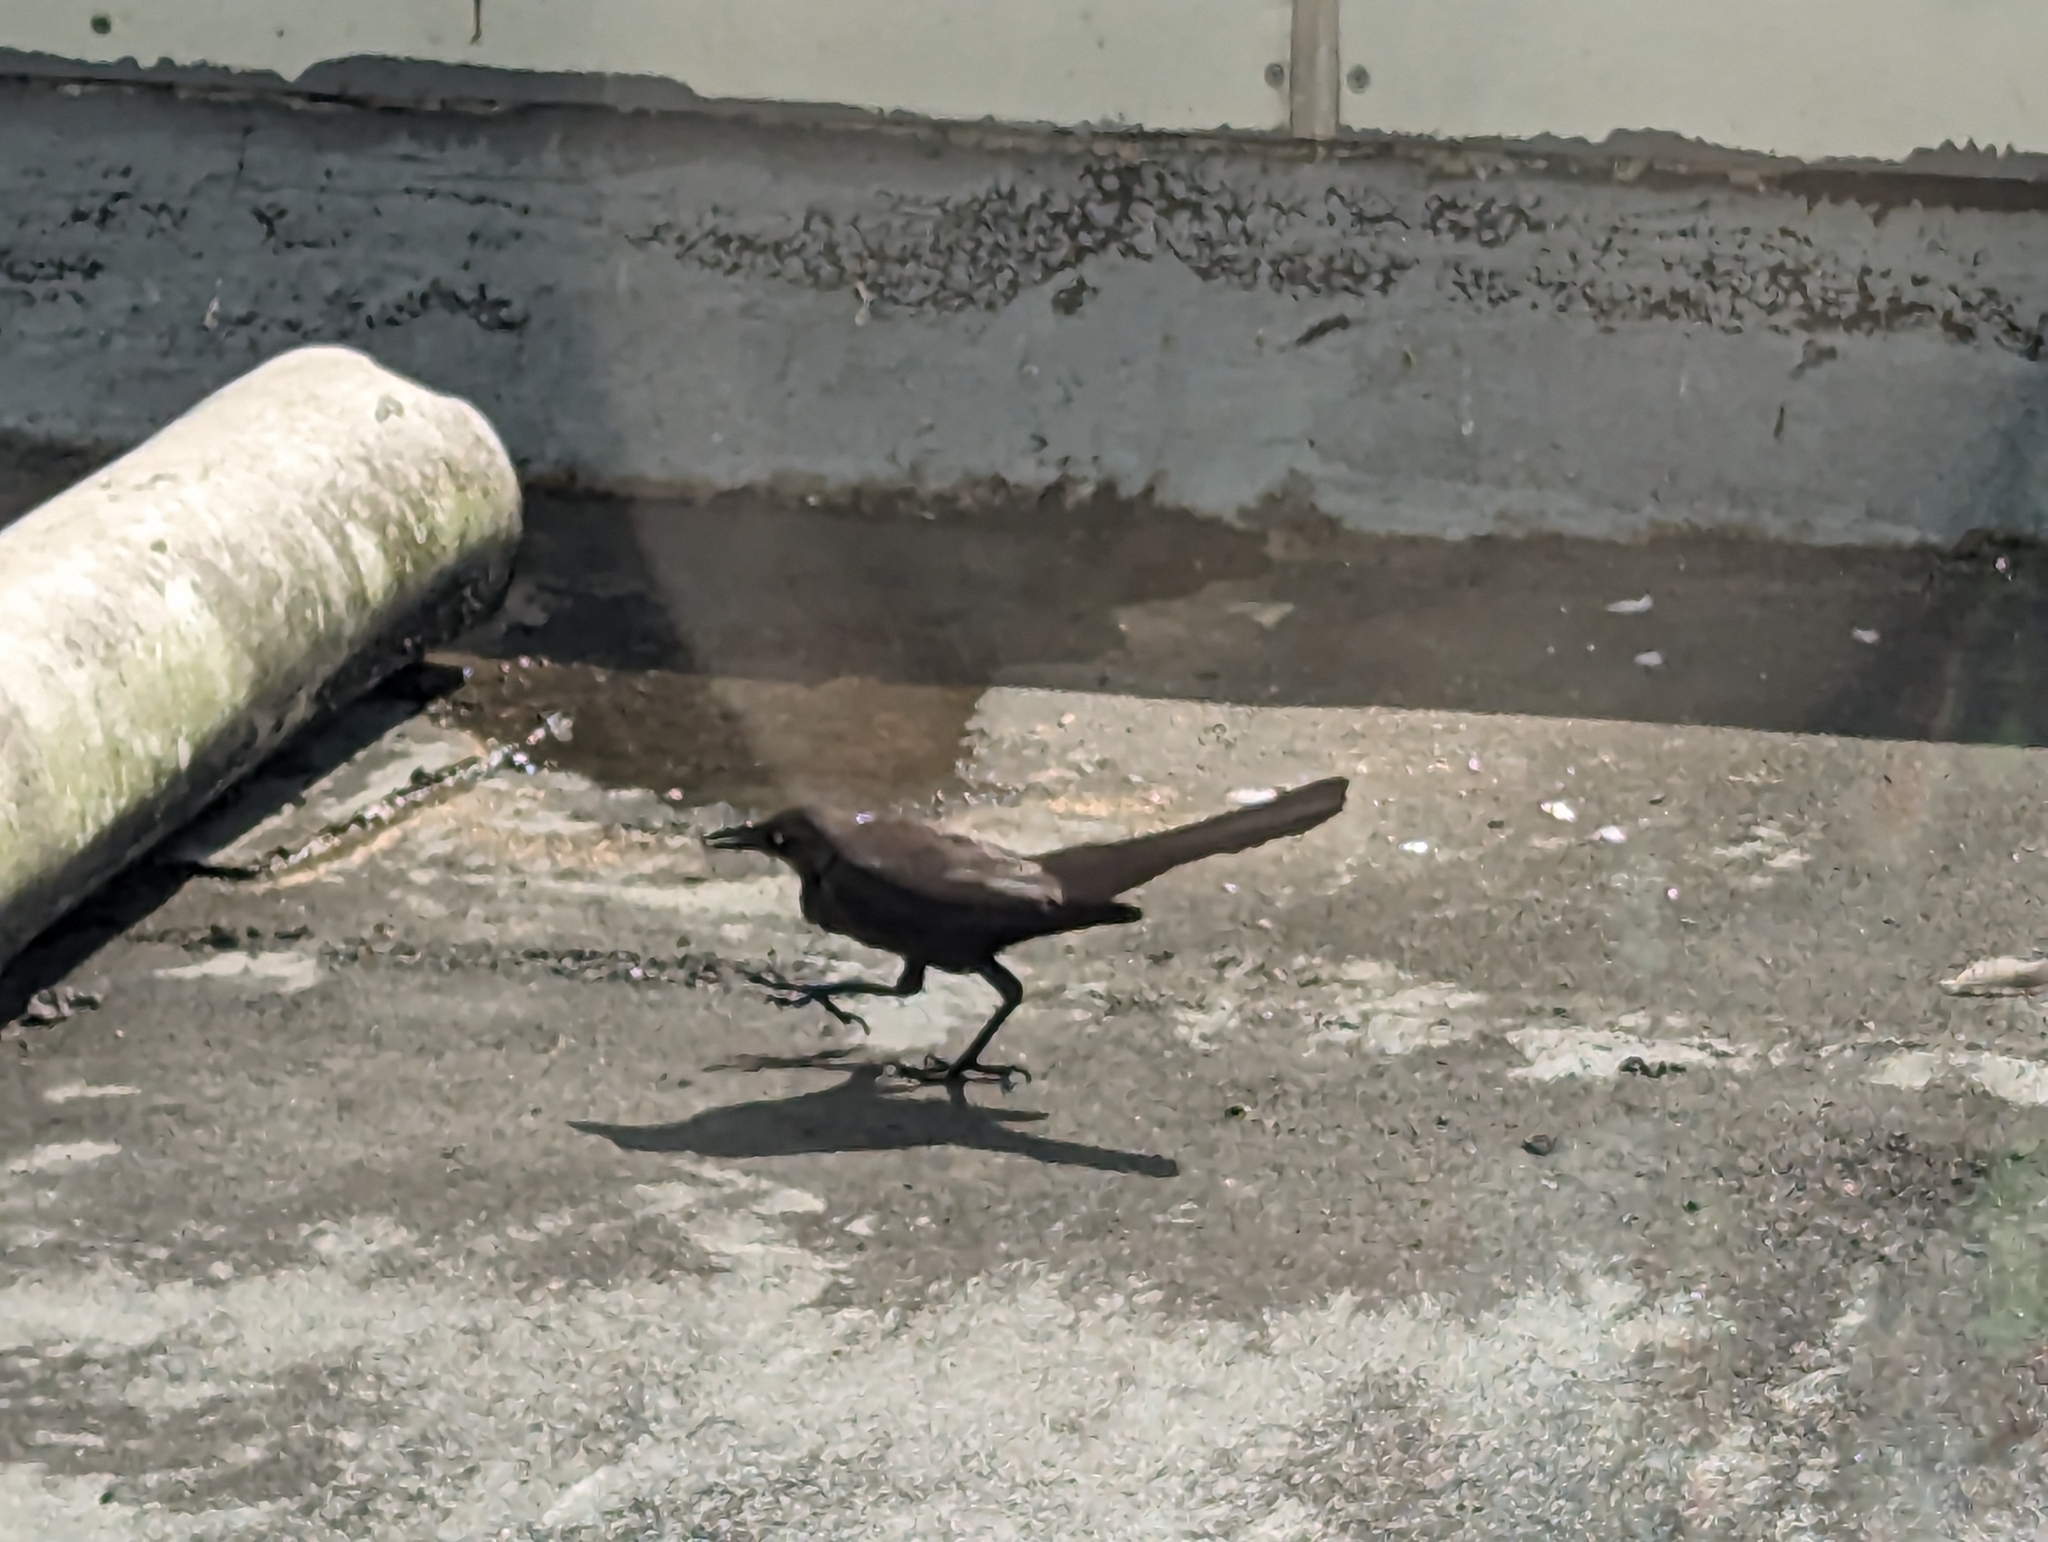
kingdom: Animalia
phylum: Chordata
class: Aves
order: Passeriformes
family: Icteridae
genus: Quiscalus
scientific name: Quiscalus mexicanus
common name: Great-tailed grackle
